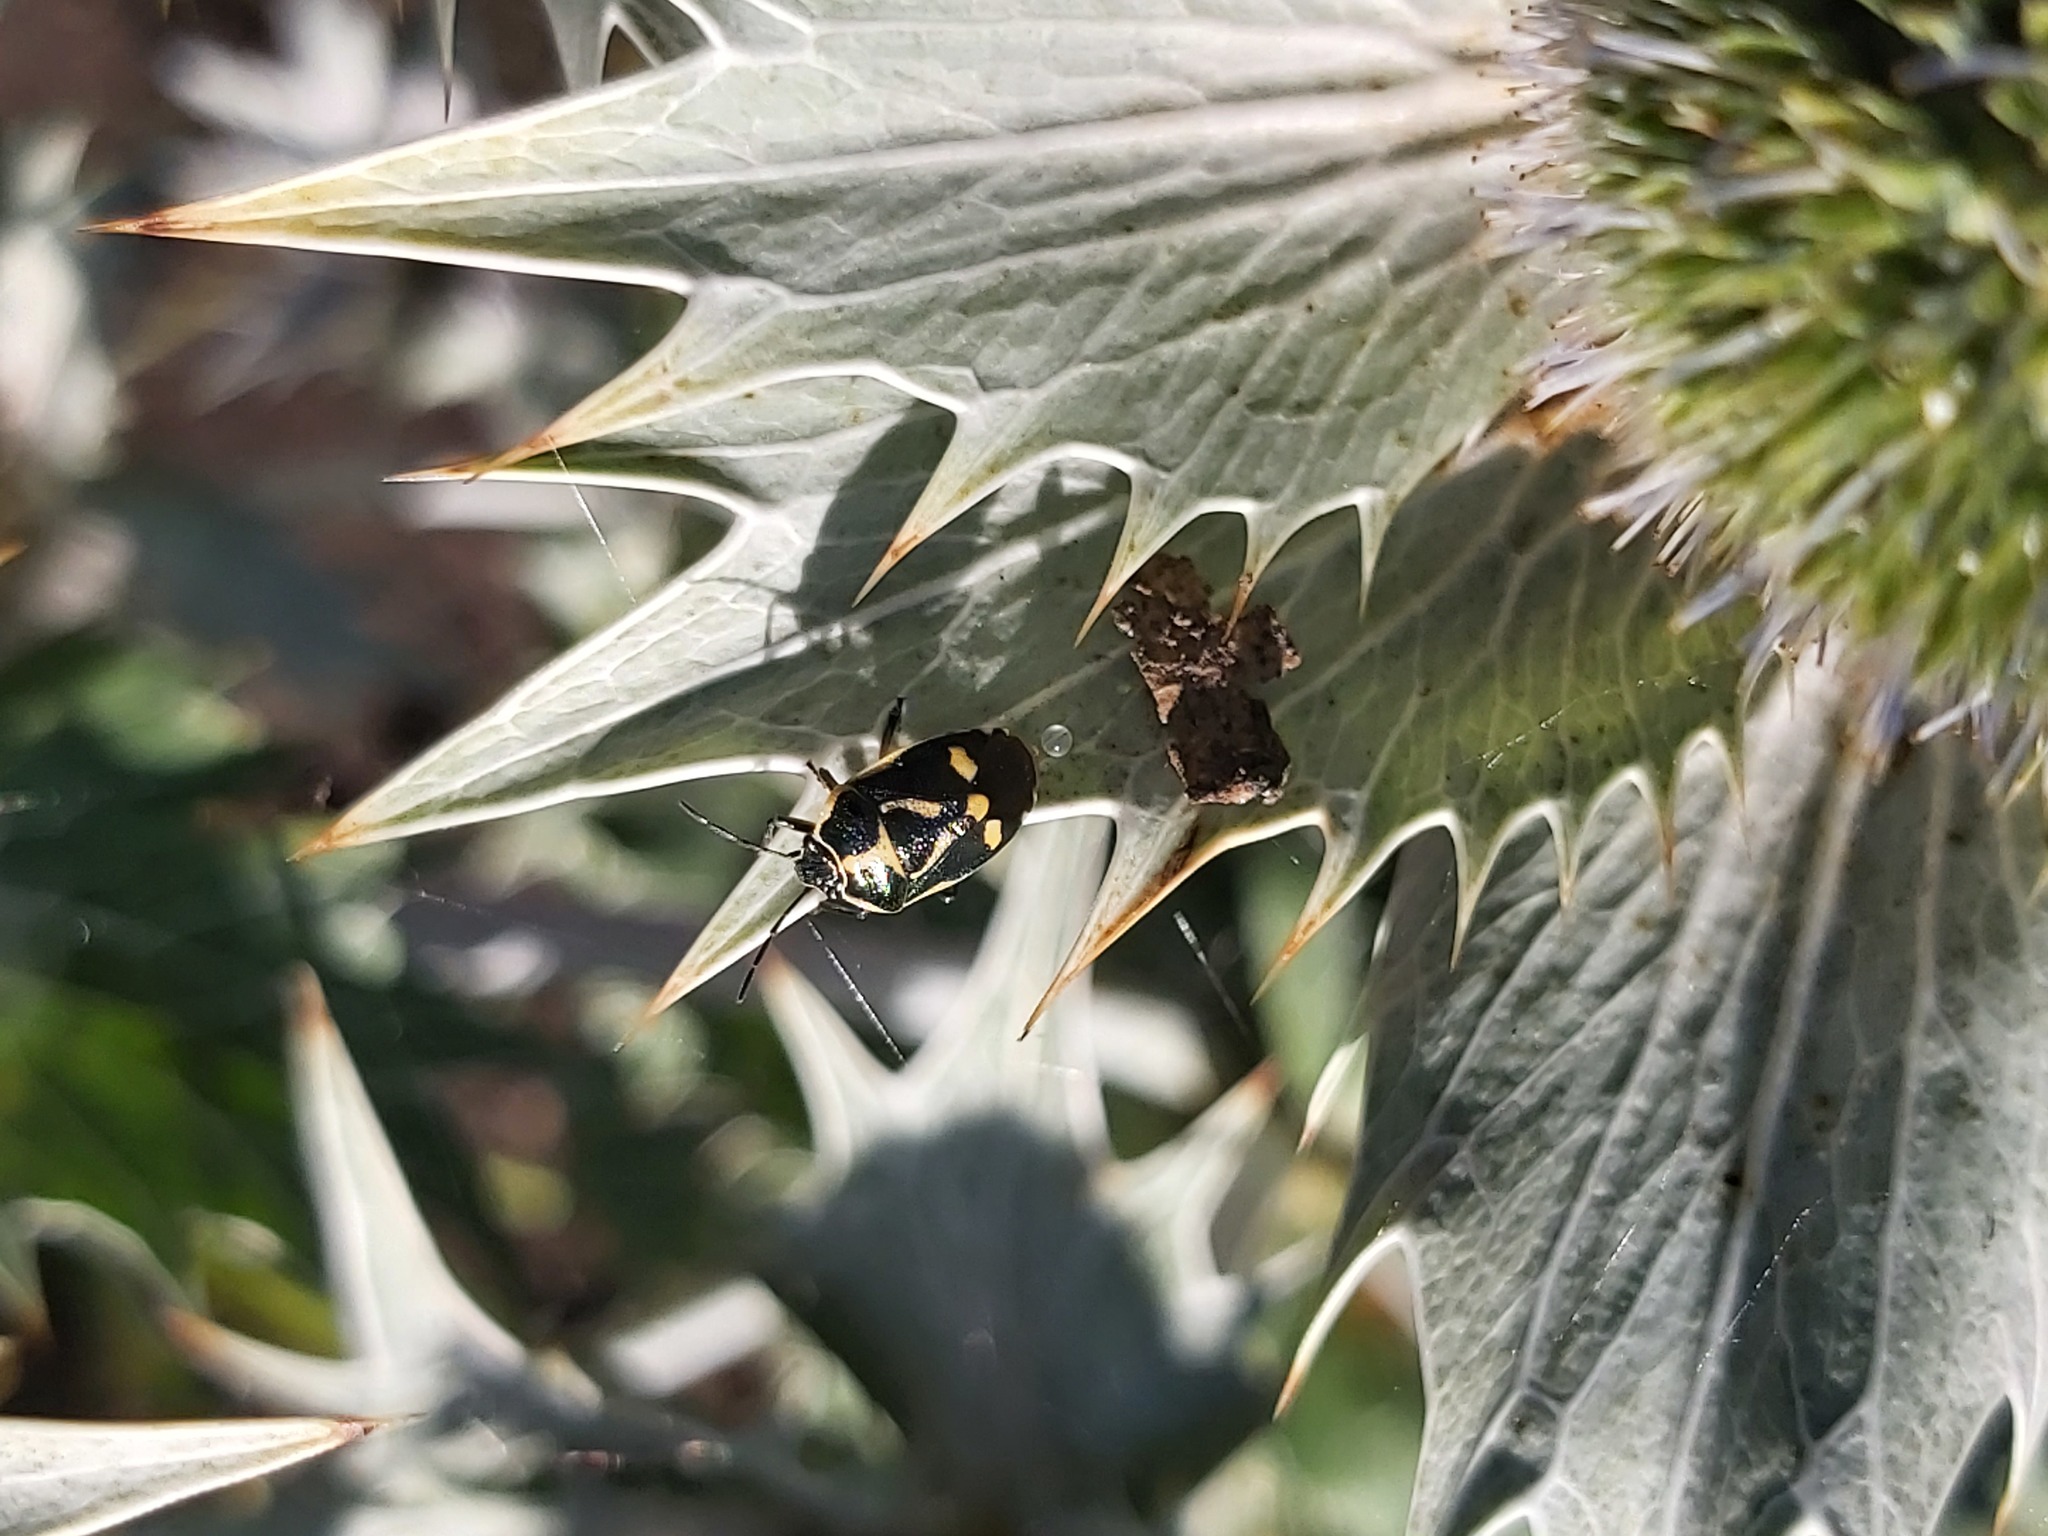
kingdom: Animalia
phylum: Arthropoda
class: Insecta
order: Hemiptera
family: Pentatomidae
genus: Eurydema
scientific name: Eurydema oleracea
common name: Cabbage bug
